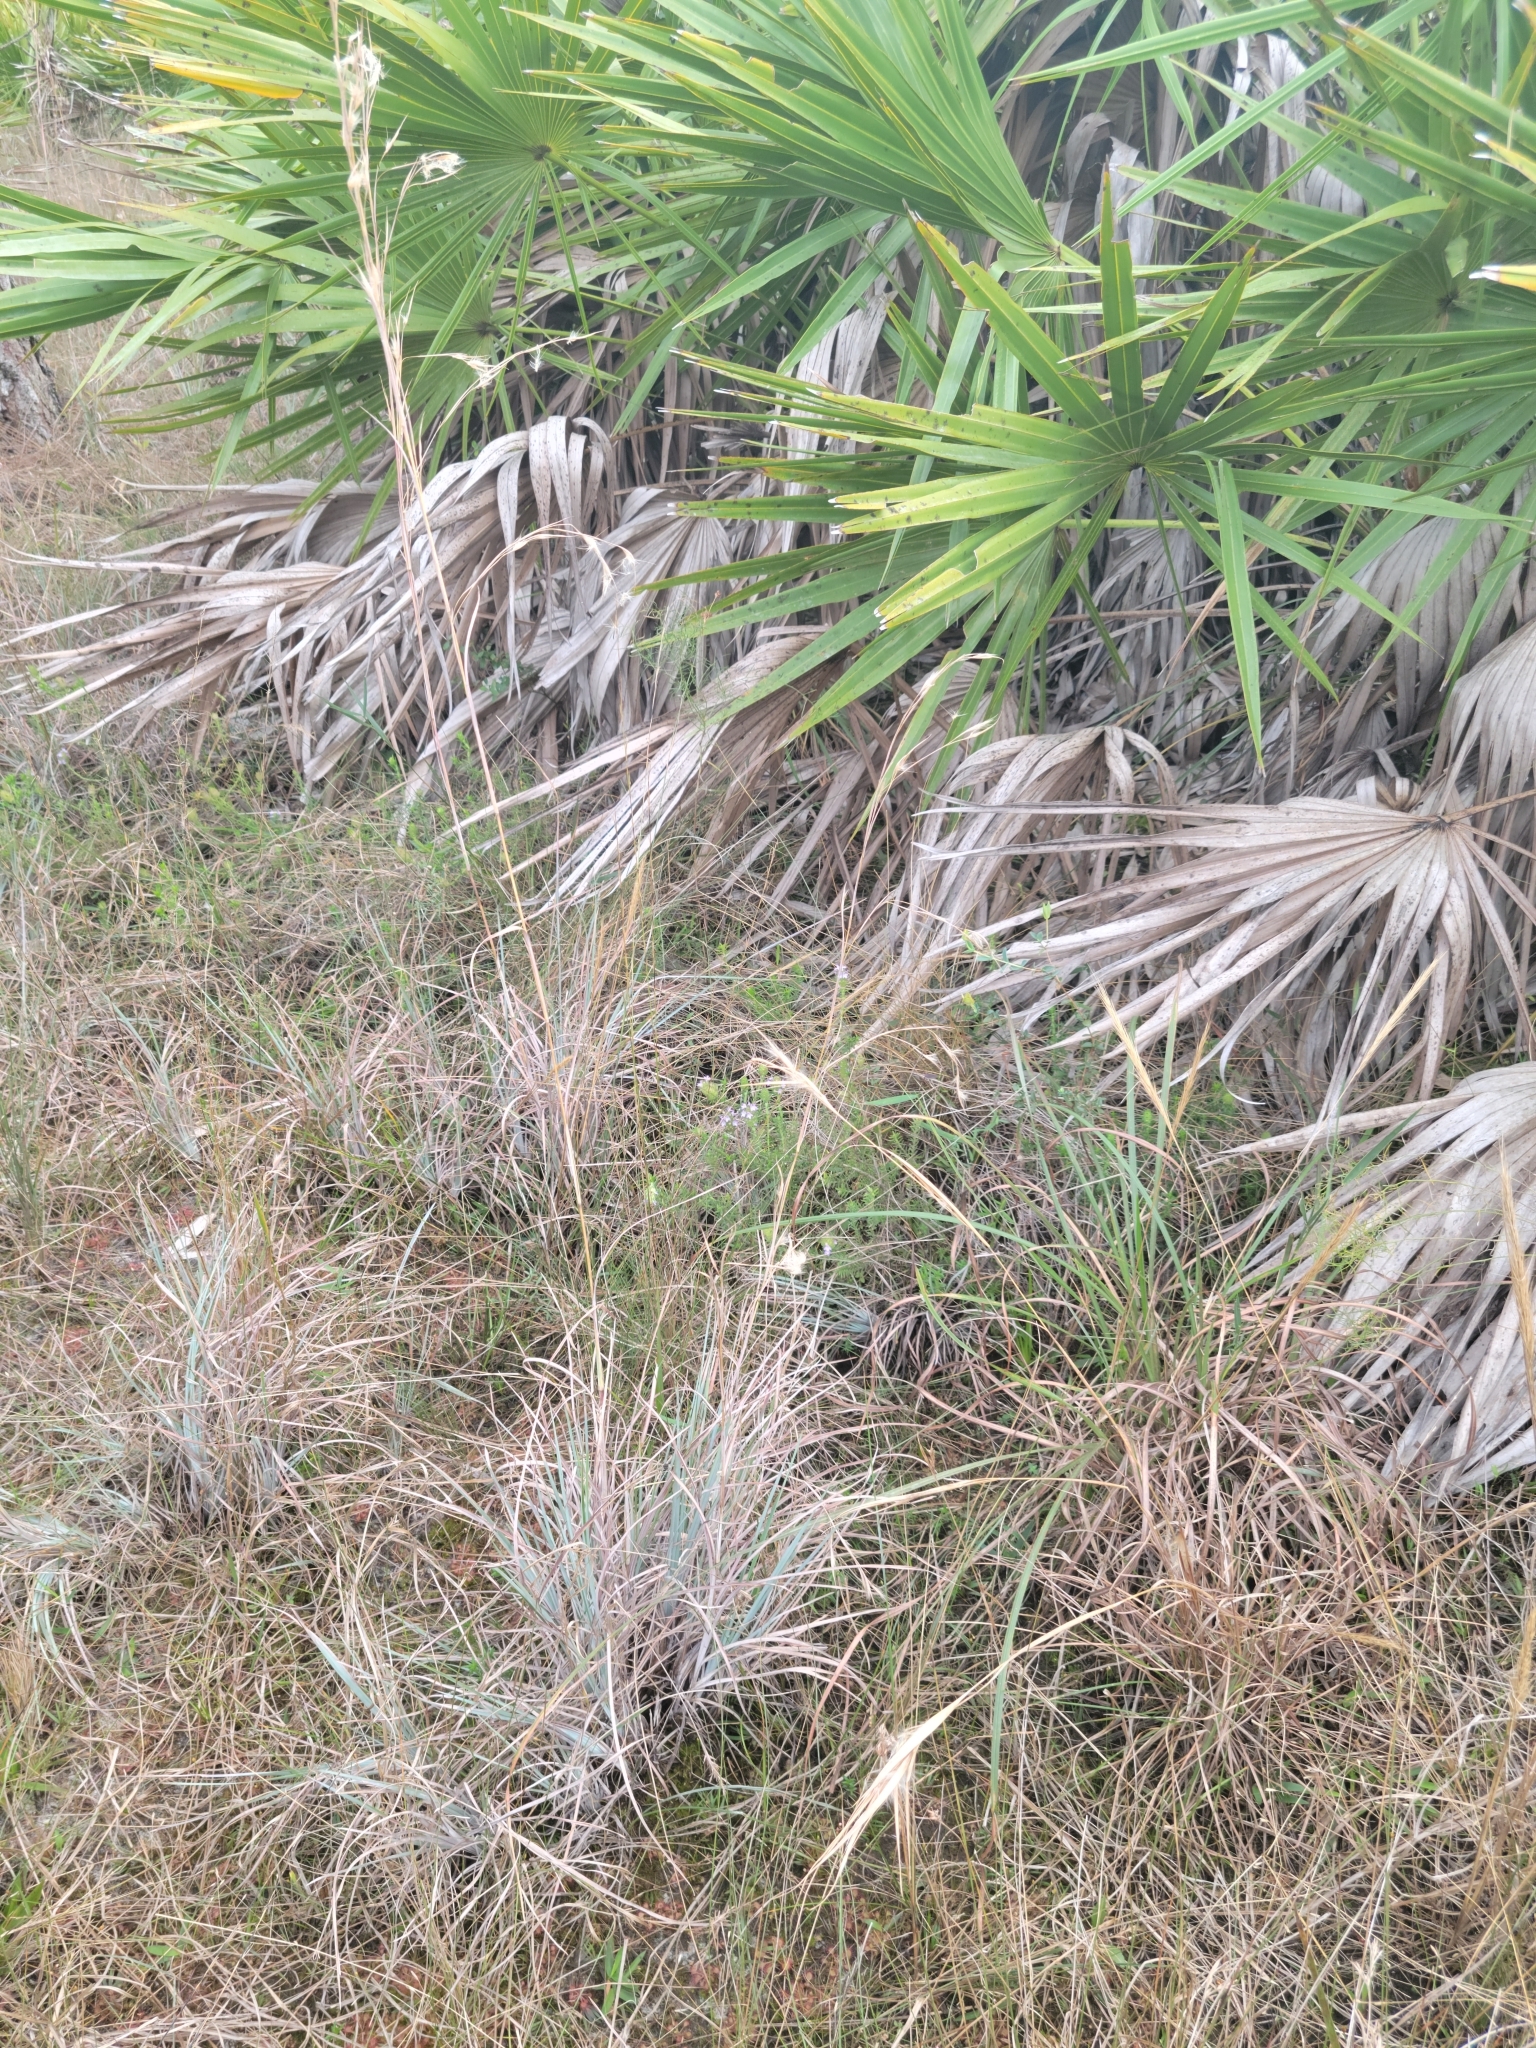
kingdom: Plantae
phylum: Tracheophyta
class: Liliopsida
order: Poales
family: Poaceae
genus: Andropogon
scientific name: Andropogon capillipes
